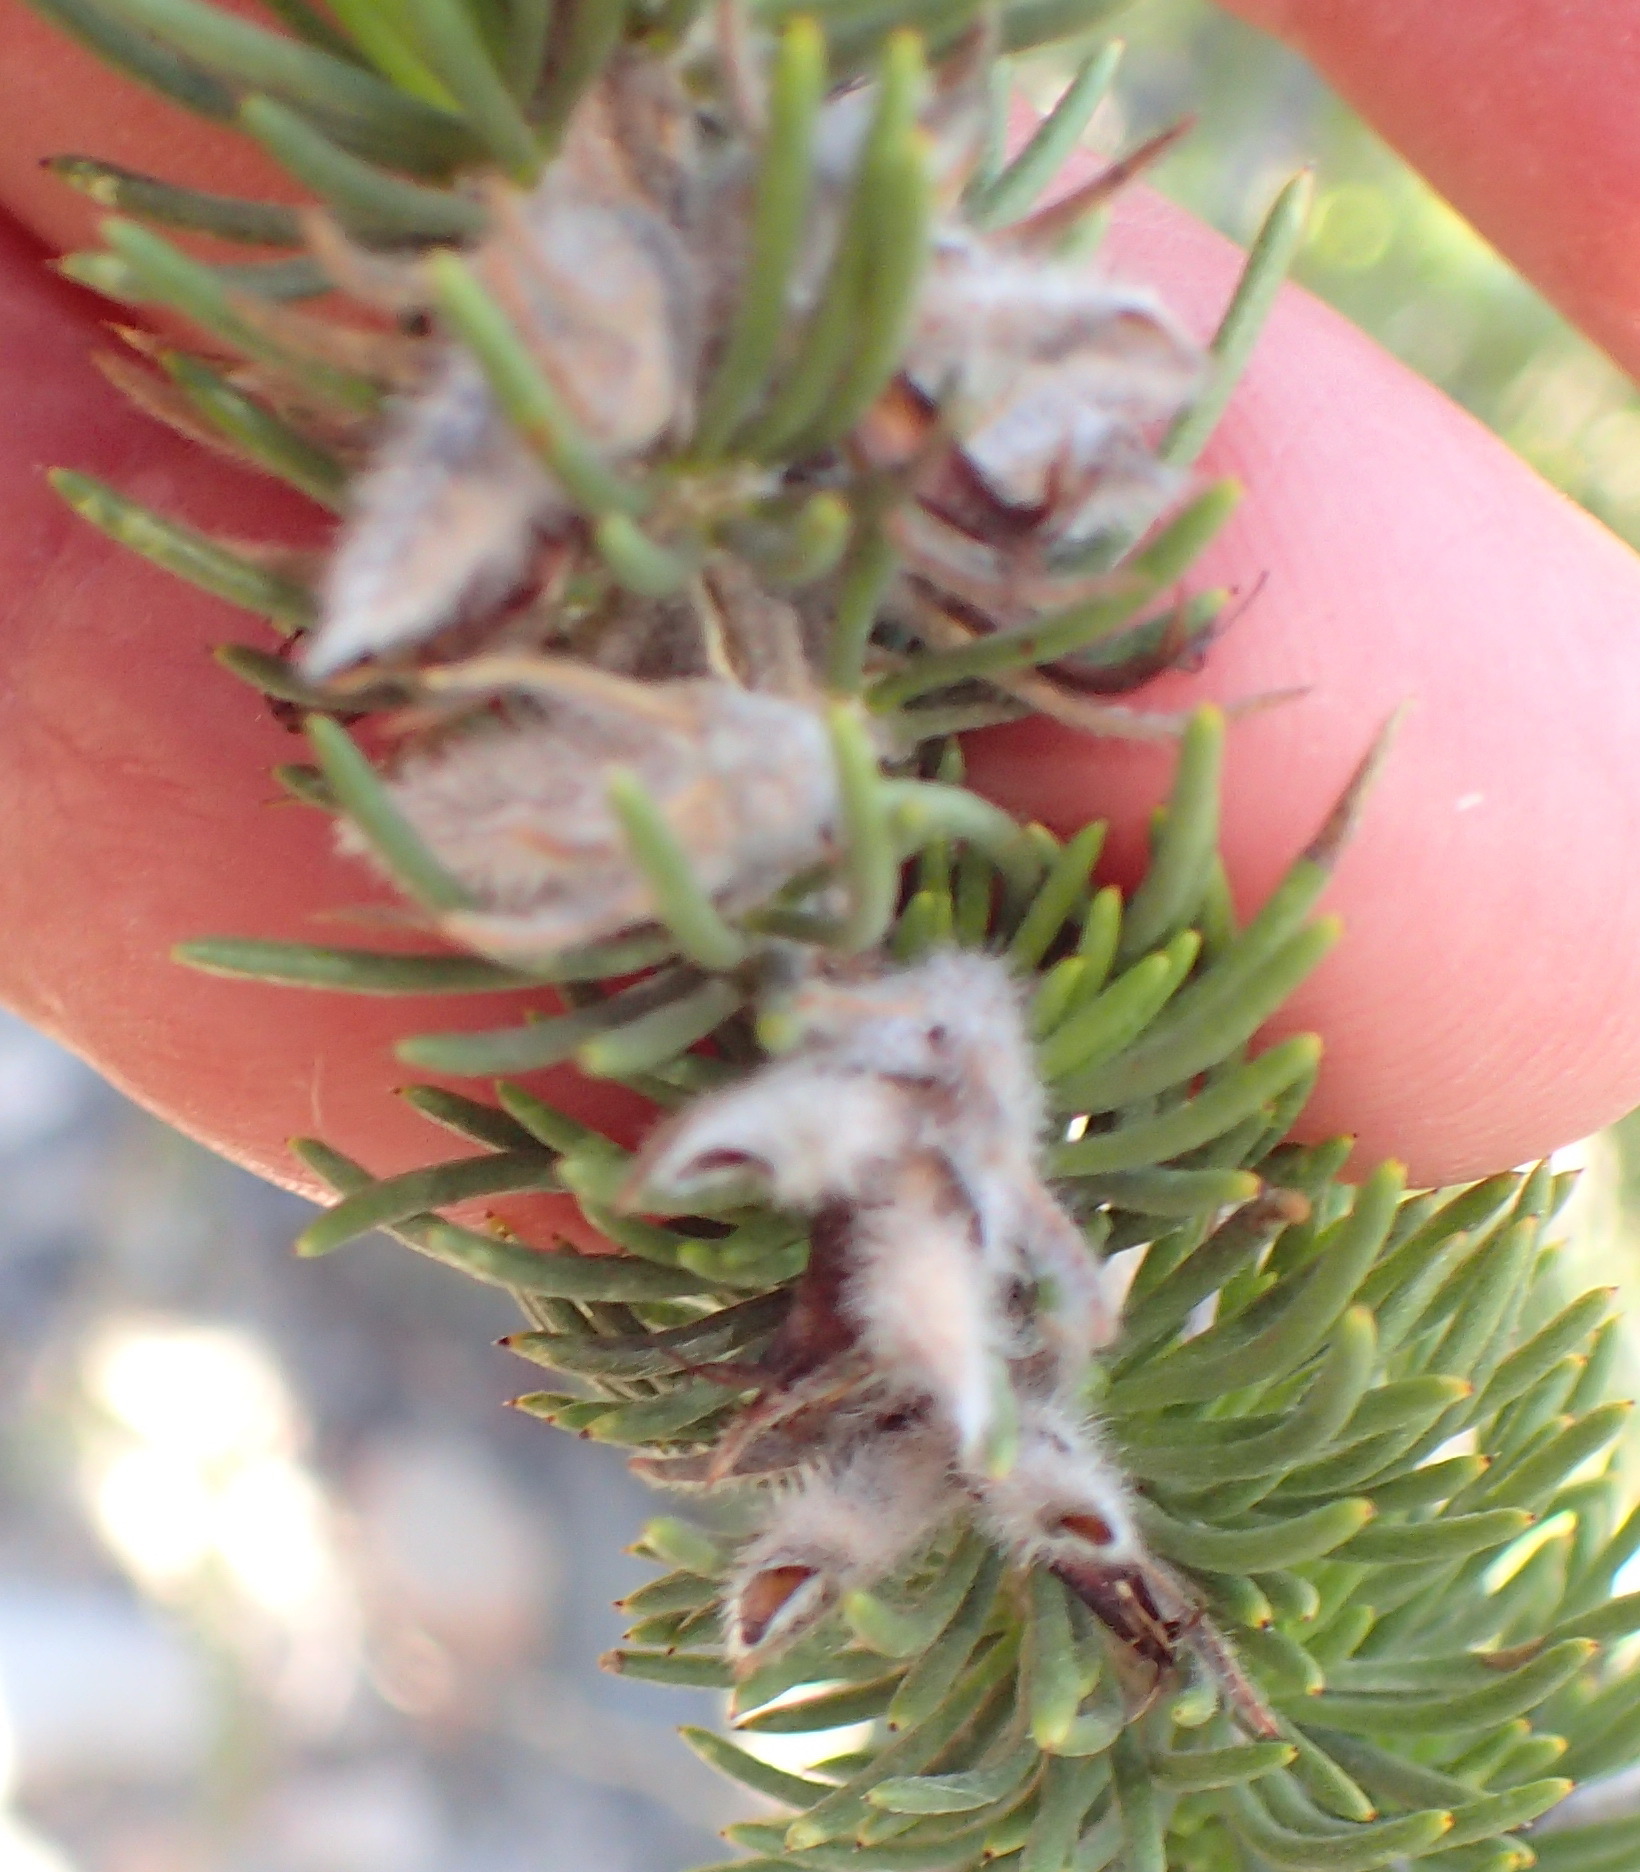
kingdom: Plantae
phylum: Tracheophyta
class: Magnoliopsida
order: Fabales
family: Fabaceae
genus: Aspalathus
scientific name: Aspalathus sceptrumaureum
